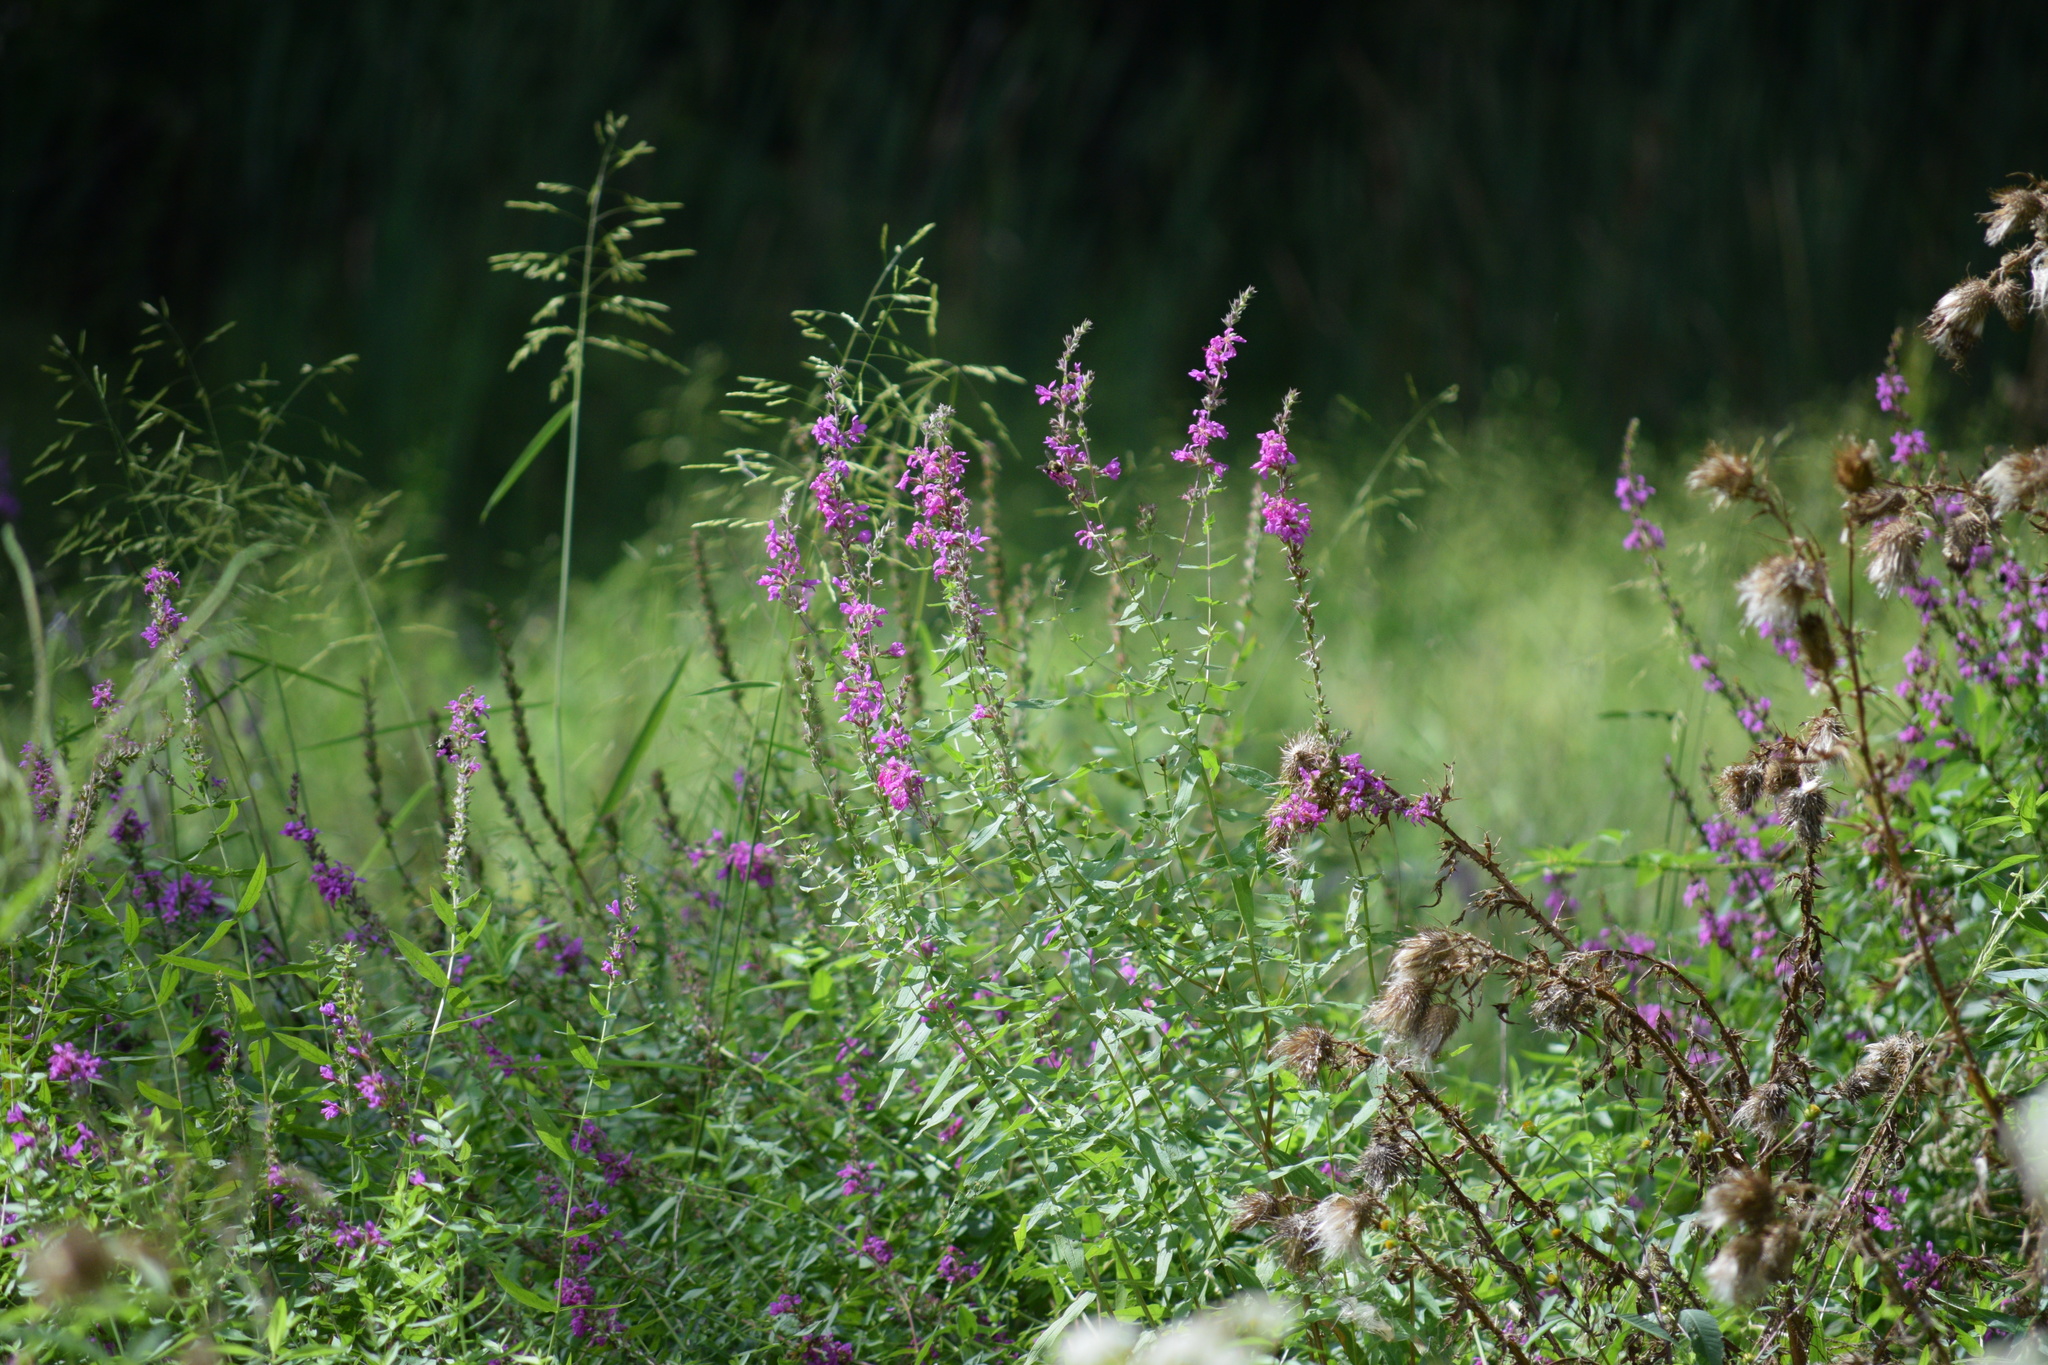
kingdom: Plantae
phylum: Tracheophyta
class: Magnoliopsida
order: Myrtales
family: Lythraceae
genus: Lythrum
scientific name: Lythrum salicaria
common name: Purple loosestrife
